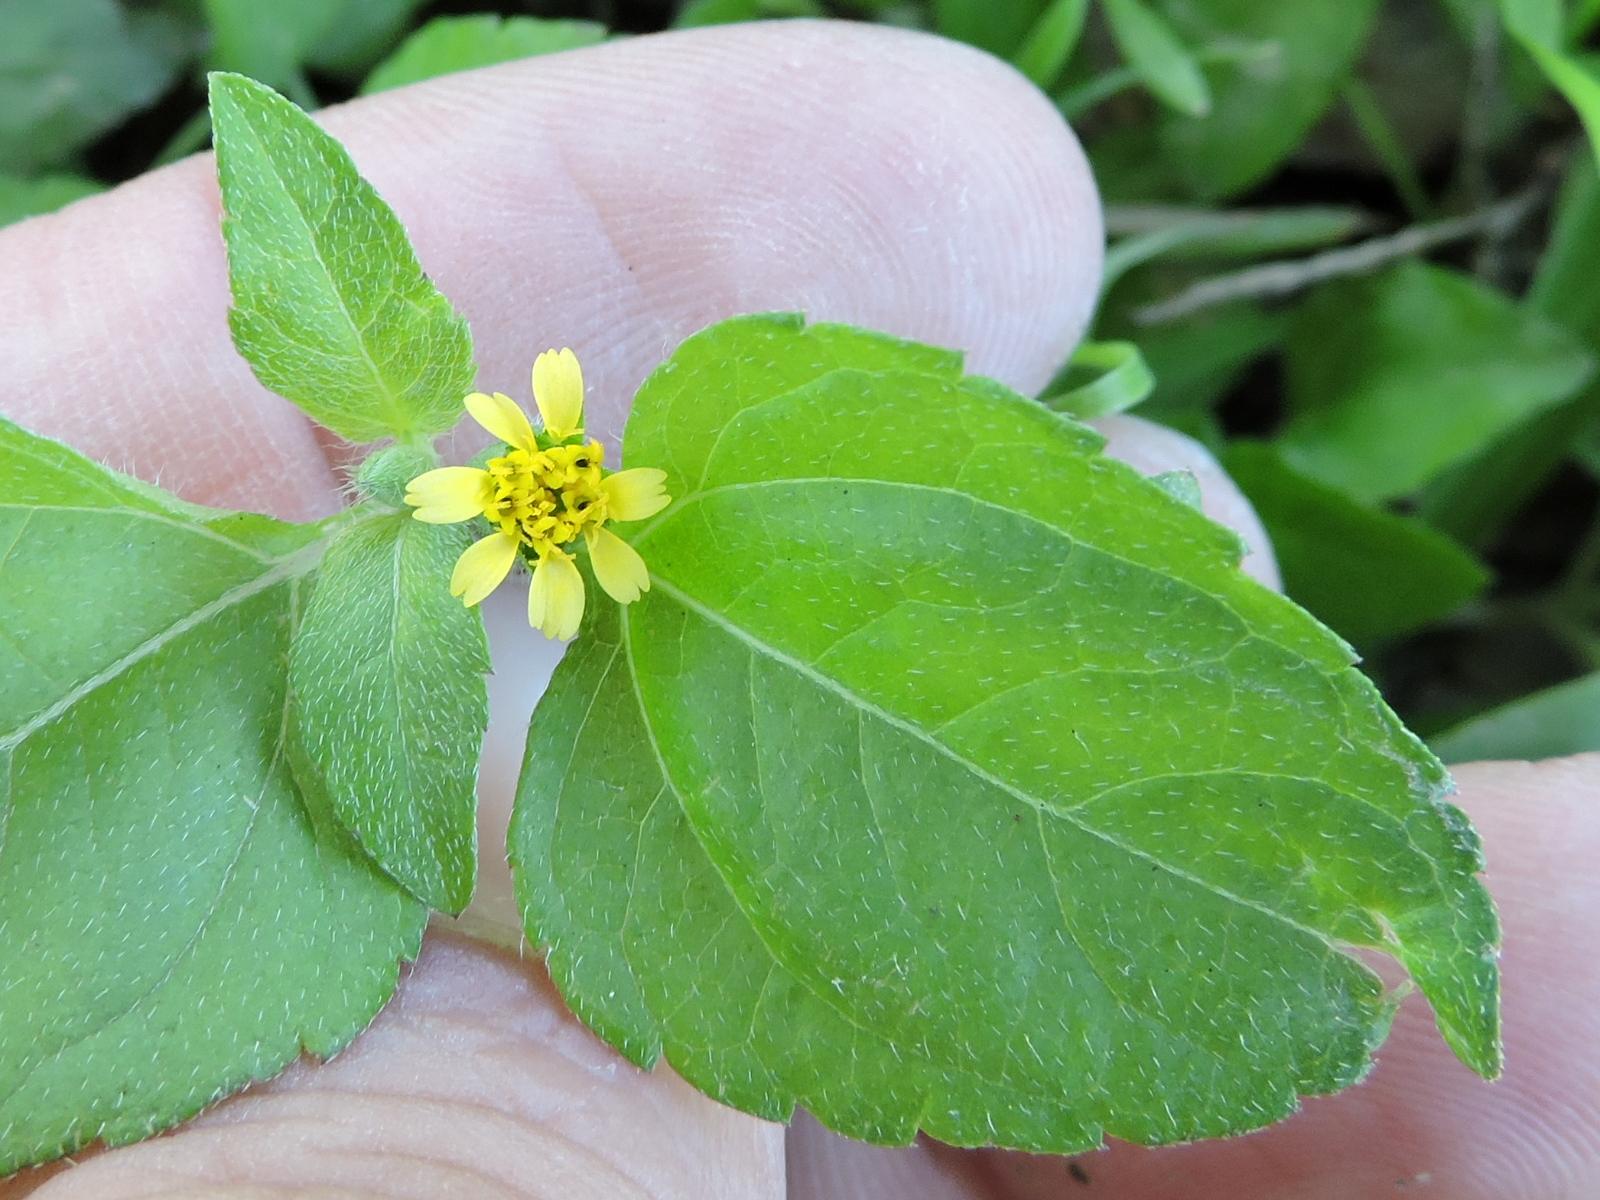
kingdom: Plantae
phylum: Tracheophyta
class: Magnoliopsida
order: Asterales
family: Asteraceae
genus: Calyptocarpus
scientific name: Calyptocarpus vialis
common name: Straggler daisy
